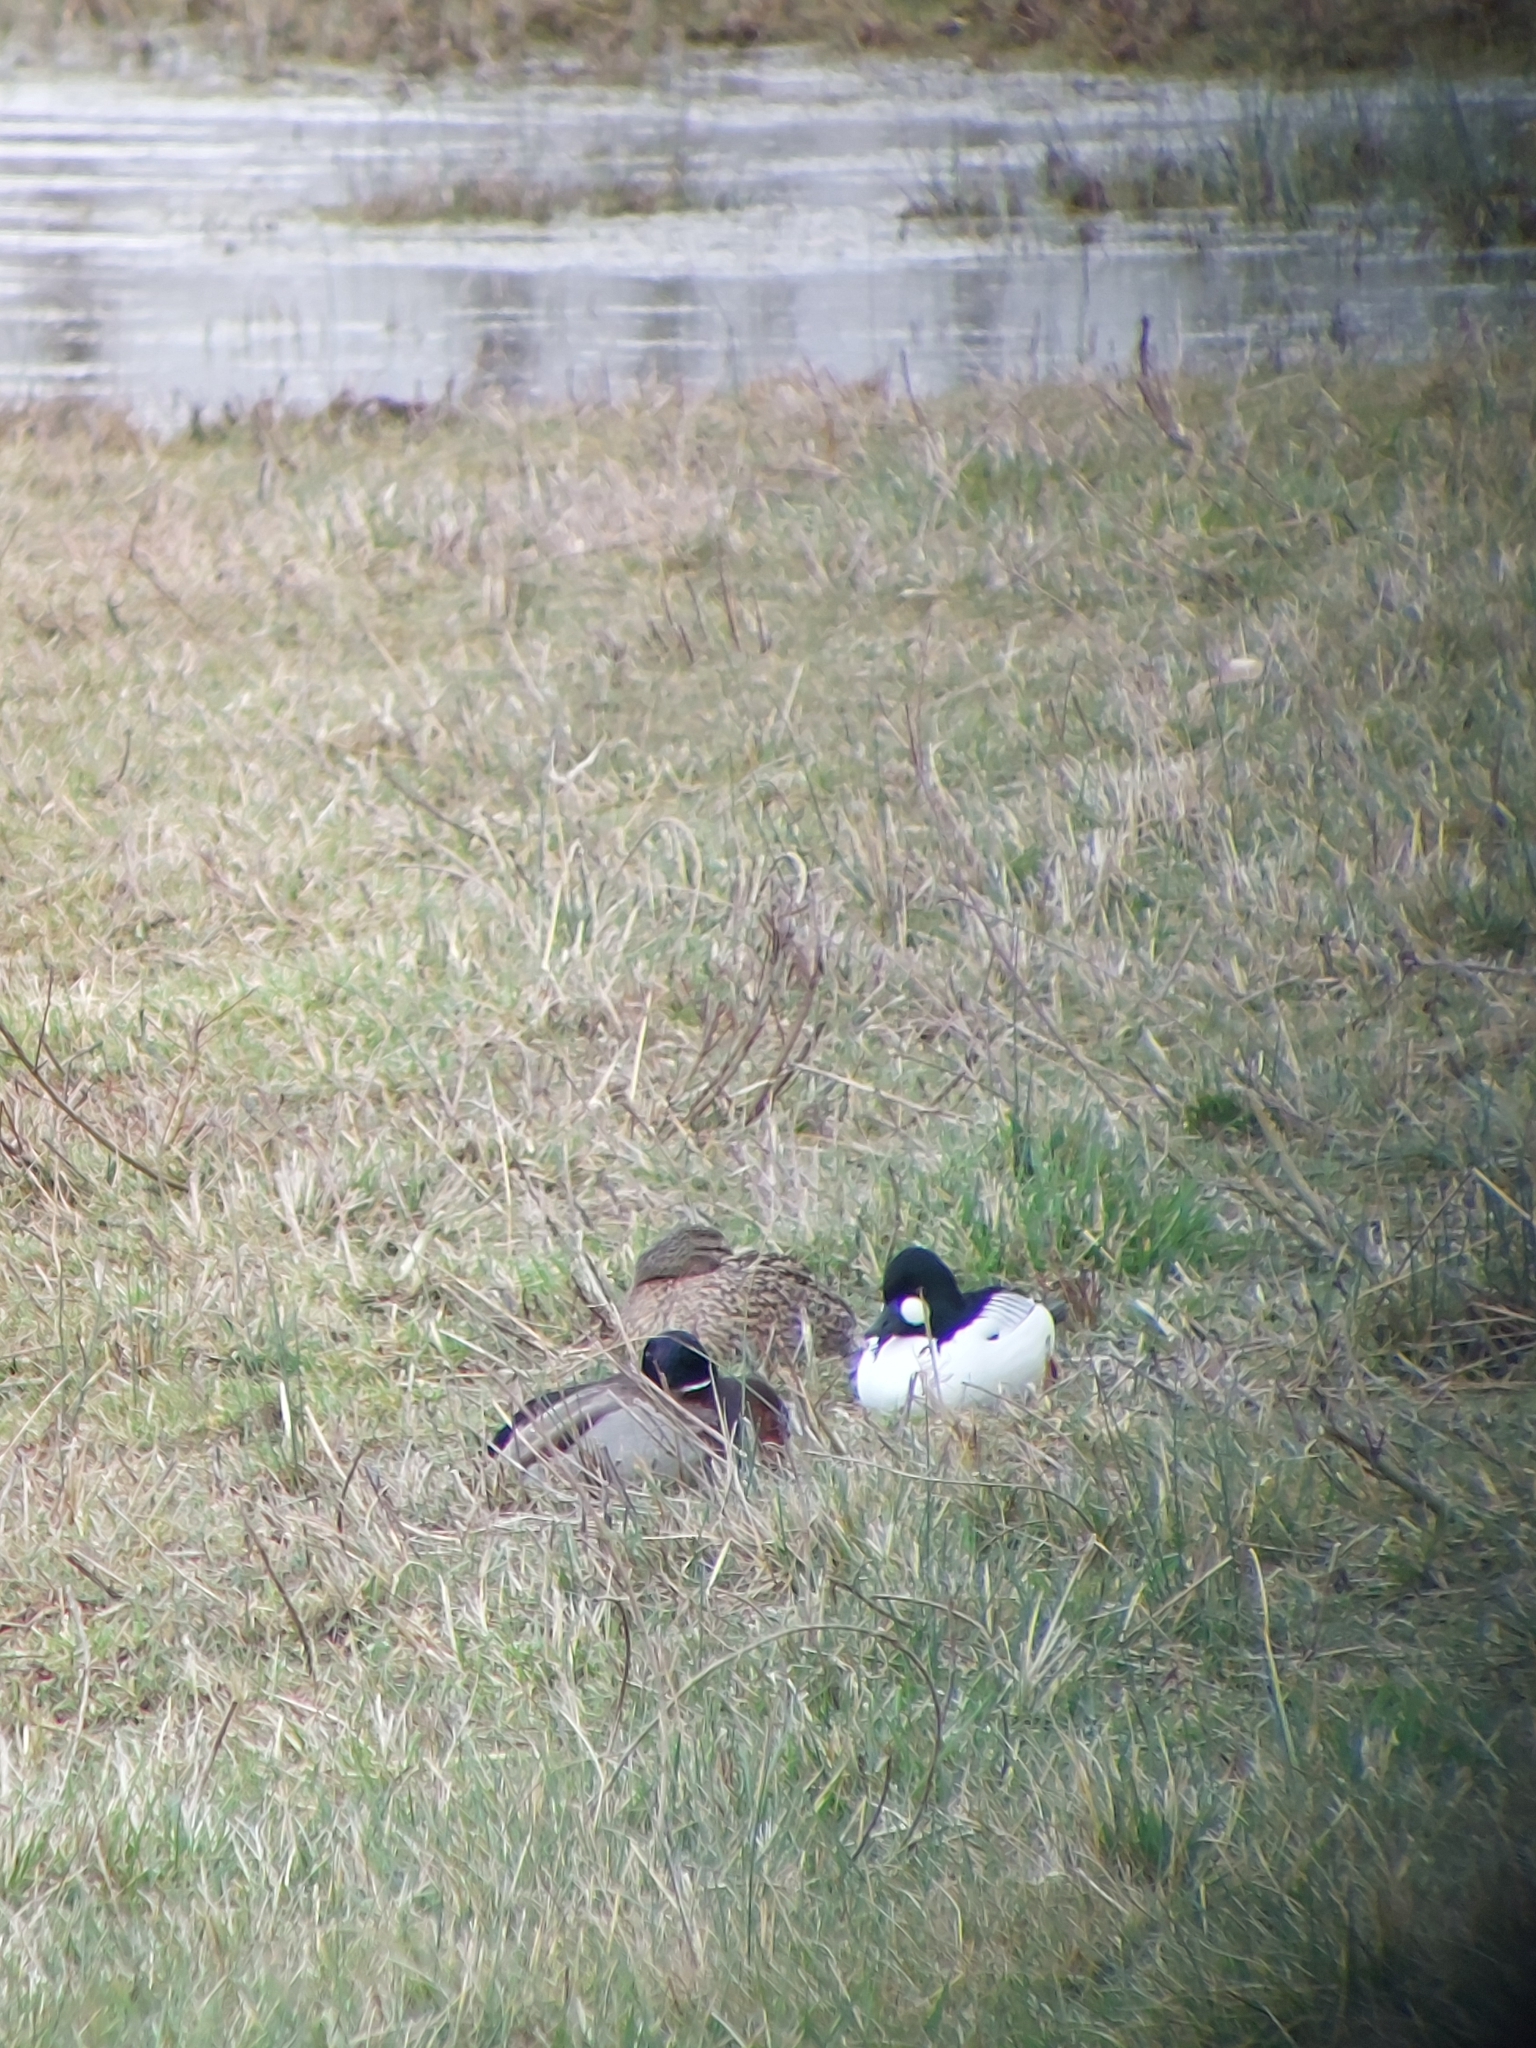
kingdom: Animalia
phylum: Chordata
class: Aves
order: Anseriformes
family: Anatidae
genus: Bucephala
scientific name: Bucephala clangula
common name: Common goldeneye
